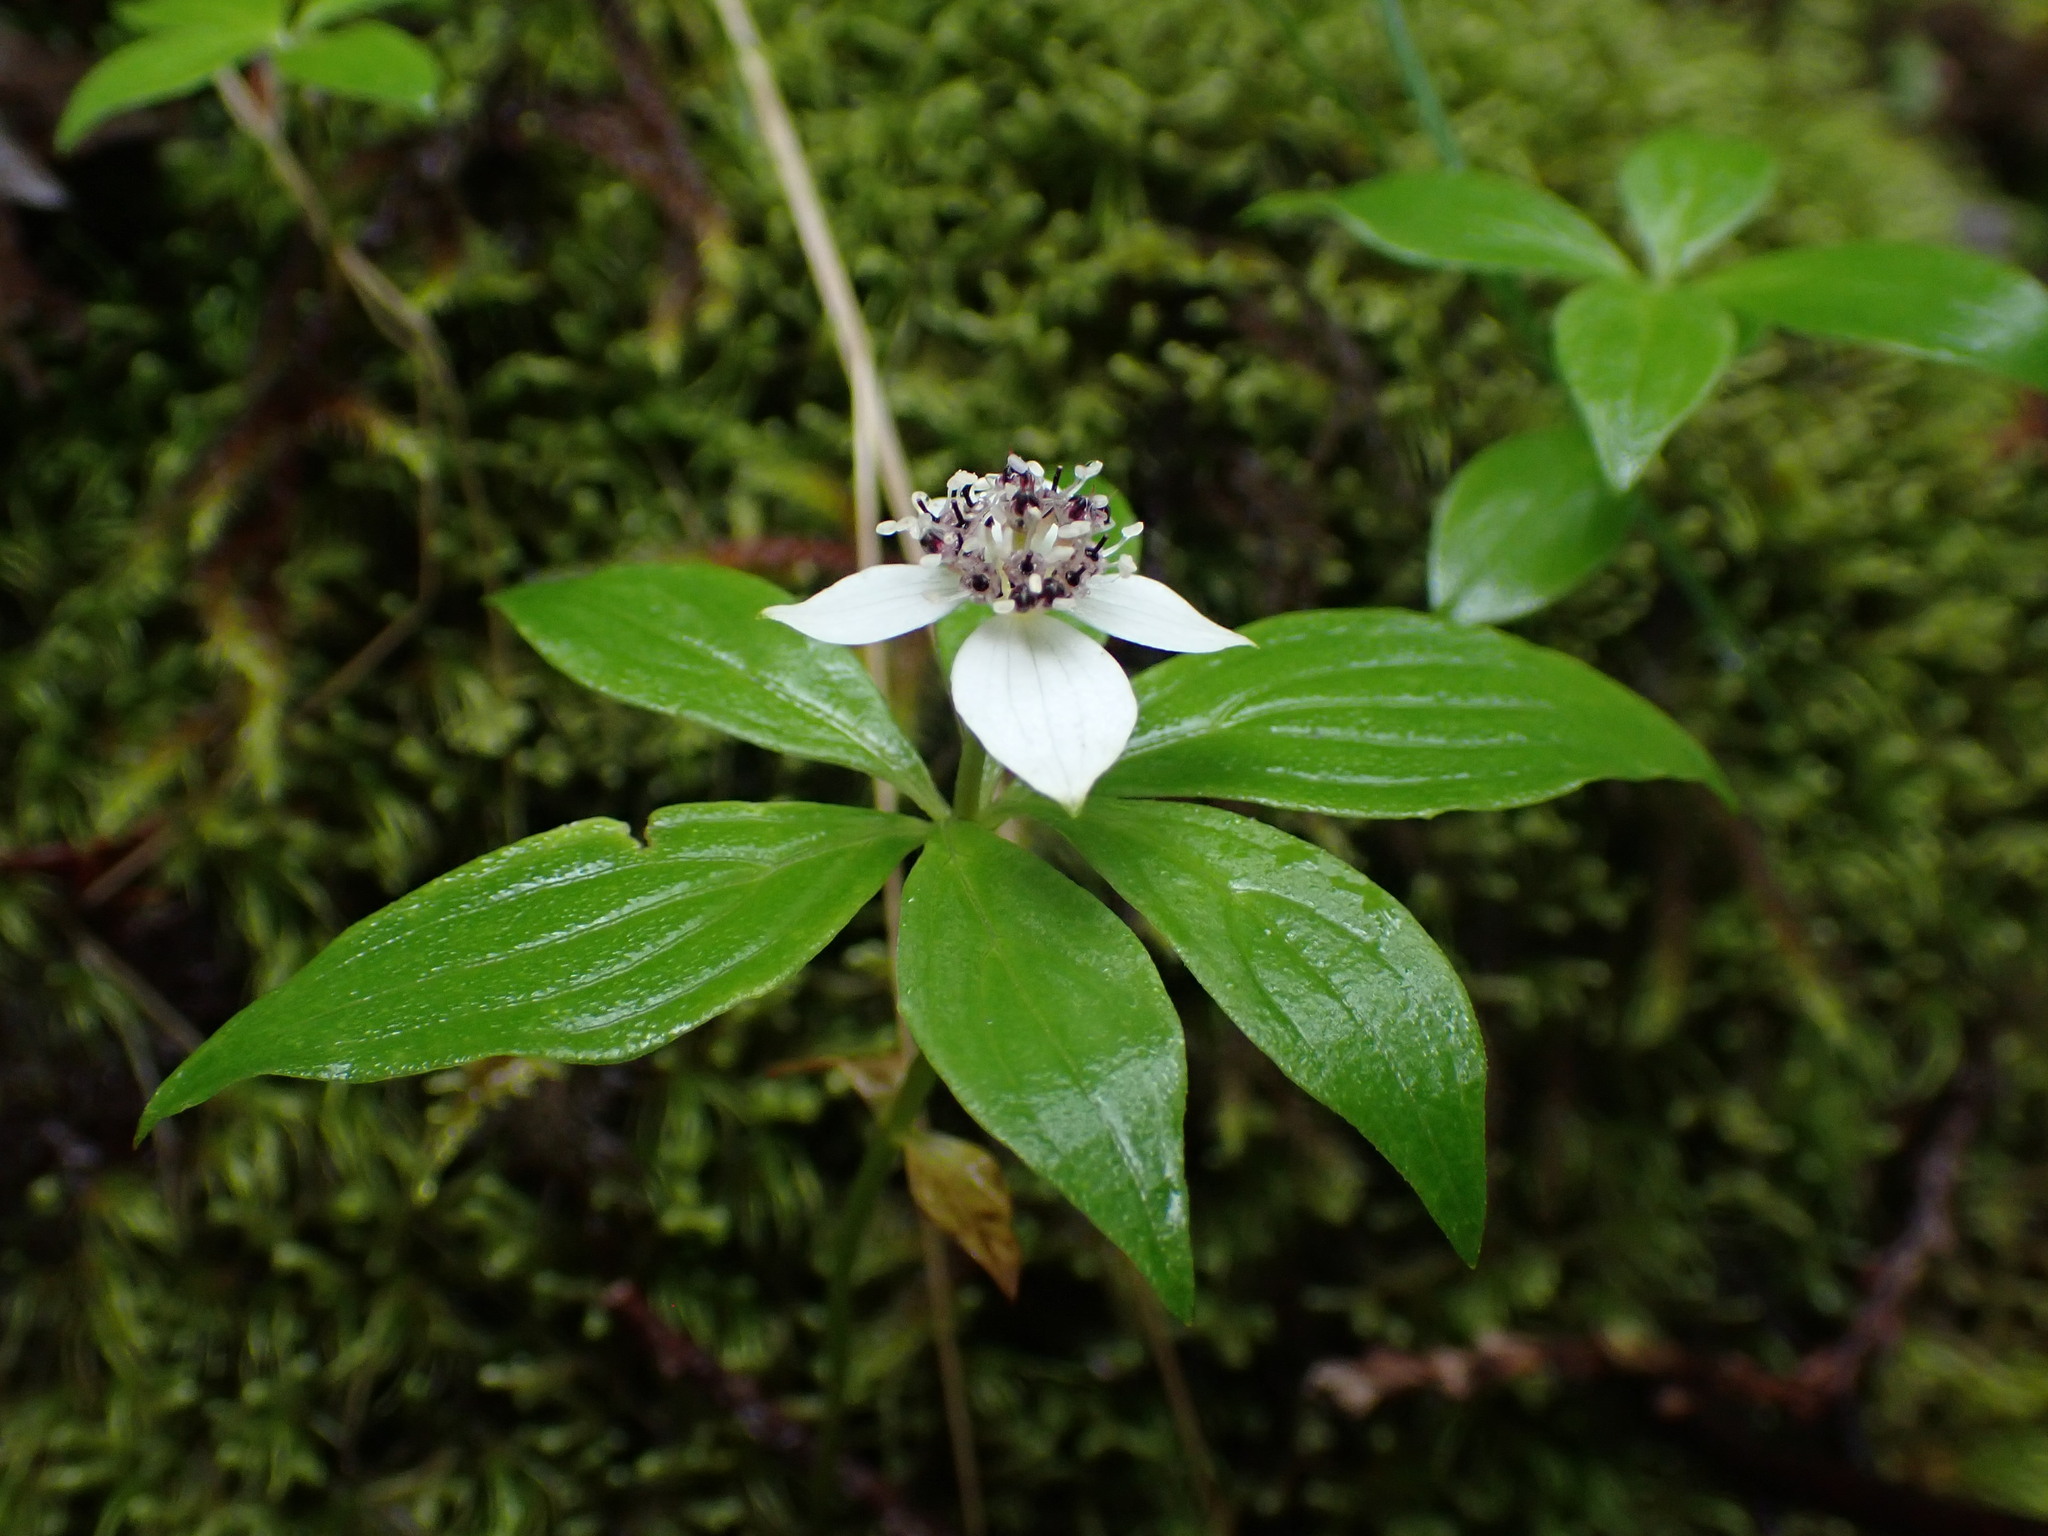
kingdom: Plantae
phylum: Tracheophyta
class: Magnoliopsida
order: Cornales
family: Cornaceae
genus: Cornus
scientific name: Cornus unalaschkensis
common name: Alaska bunchberry
